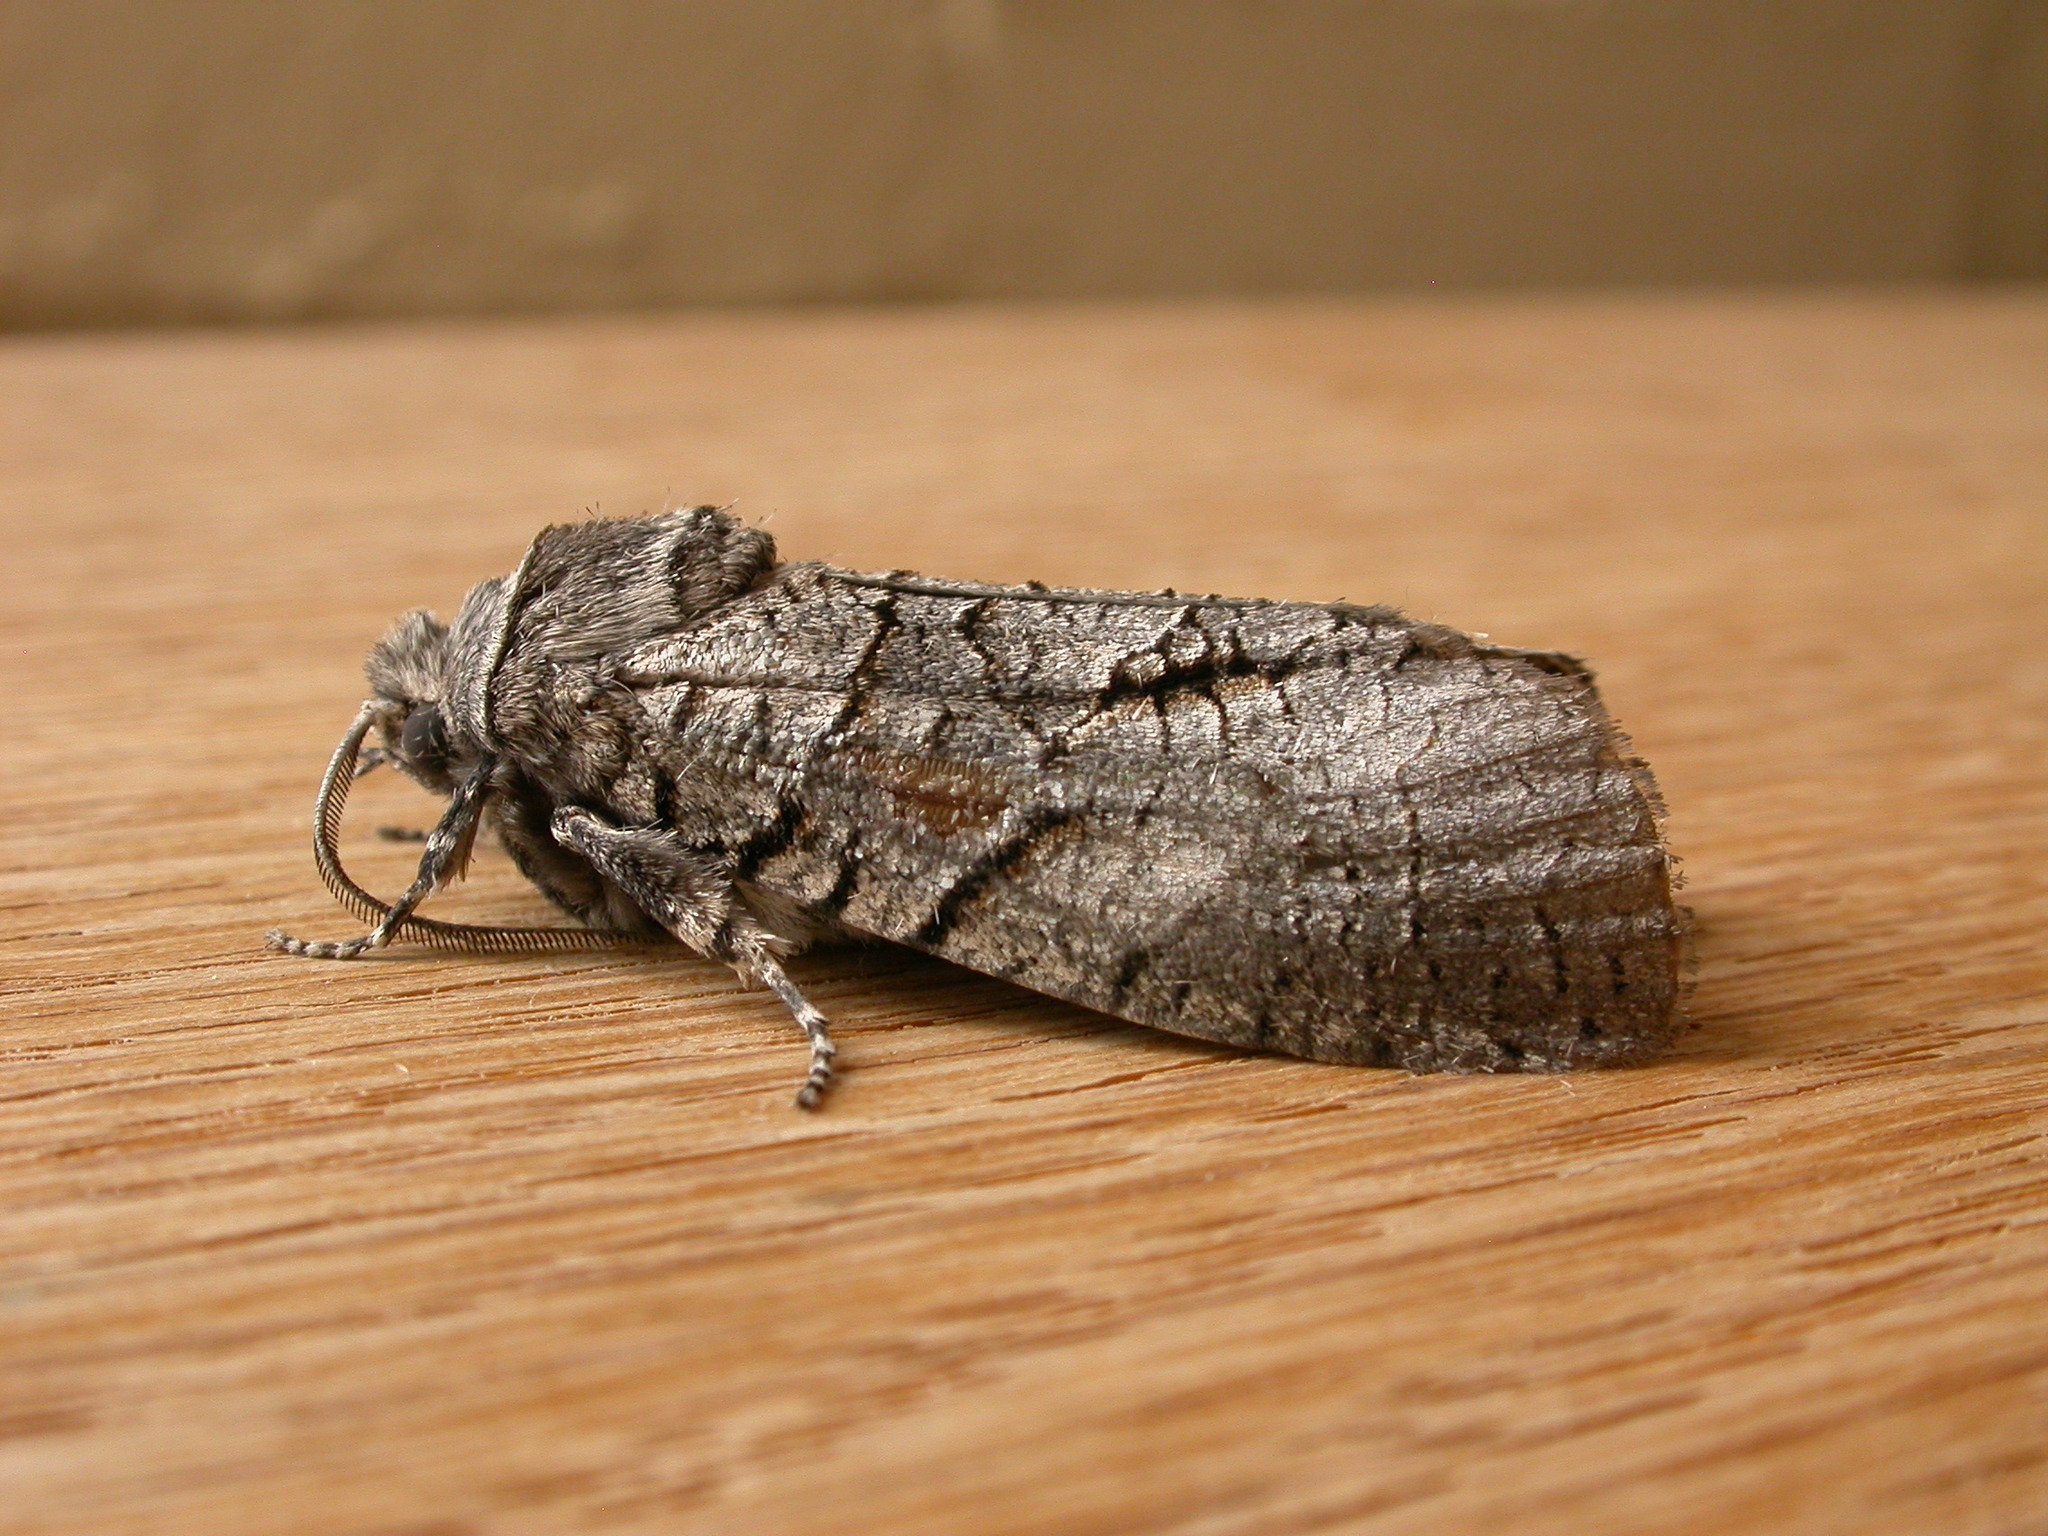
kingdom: Animalia
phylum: Arthropoda
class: Insecta
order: Lepidoptera
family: Cossidae
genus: Culama
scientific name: Culama anthracica
